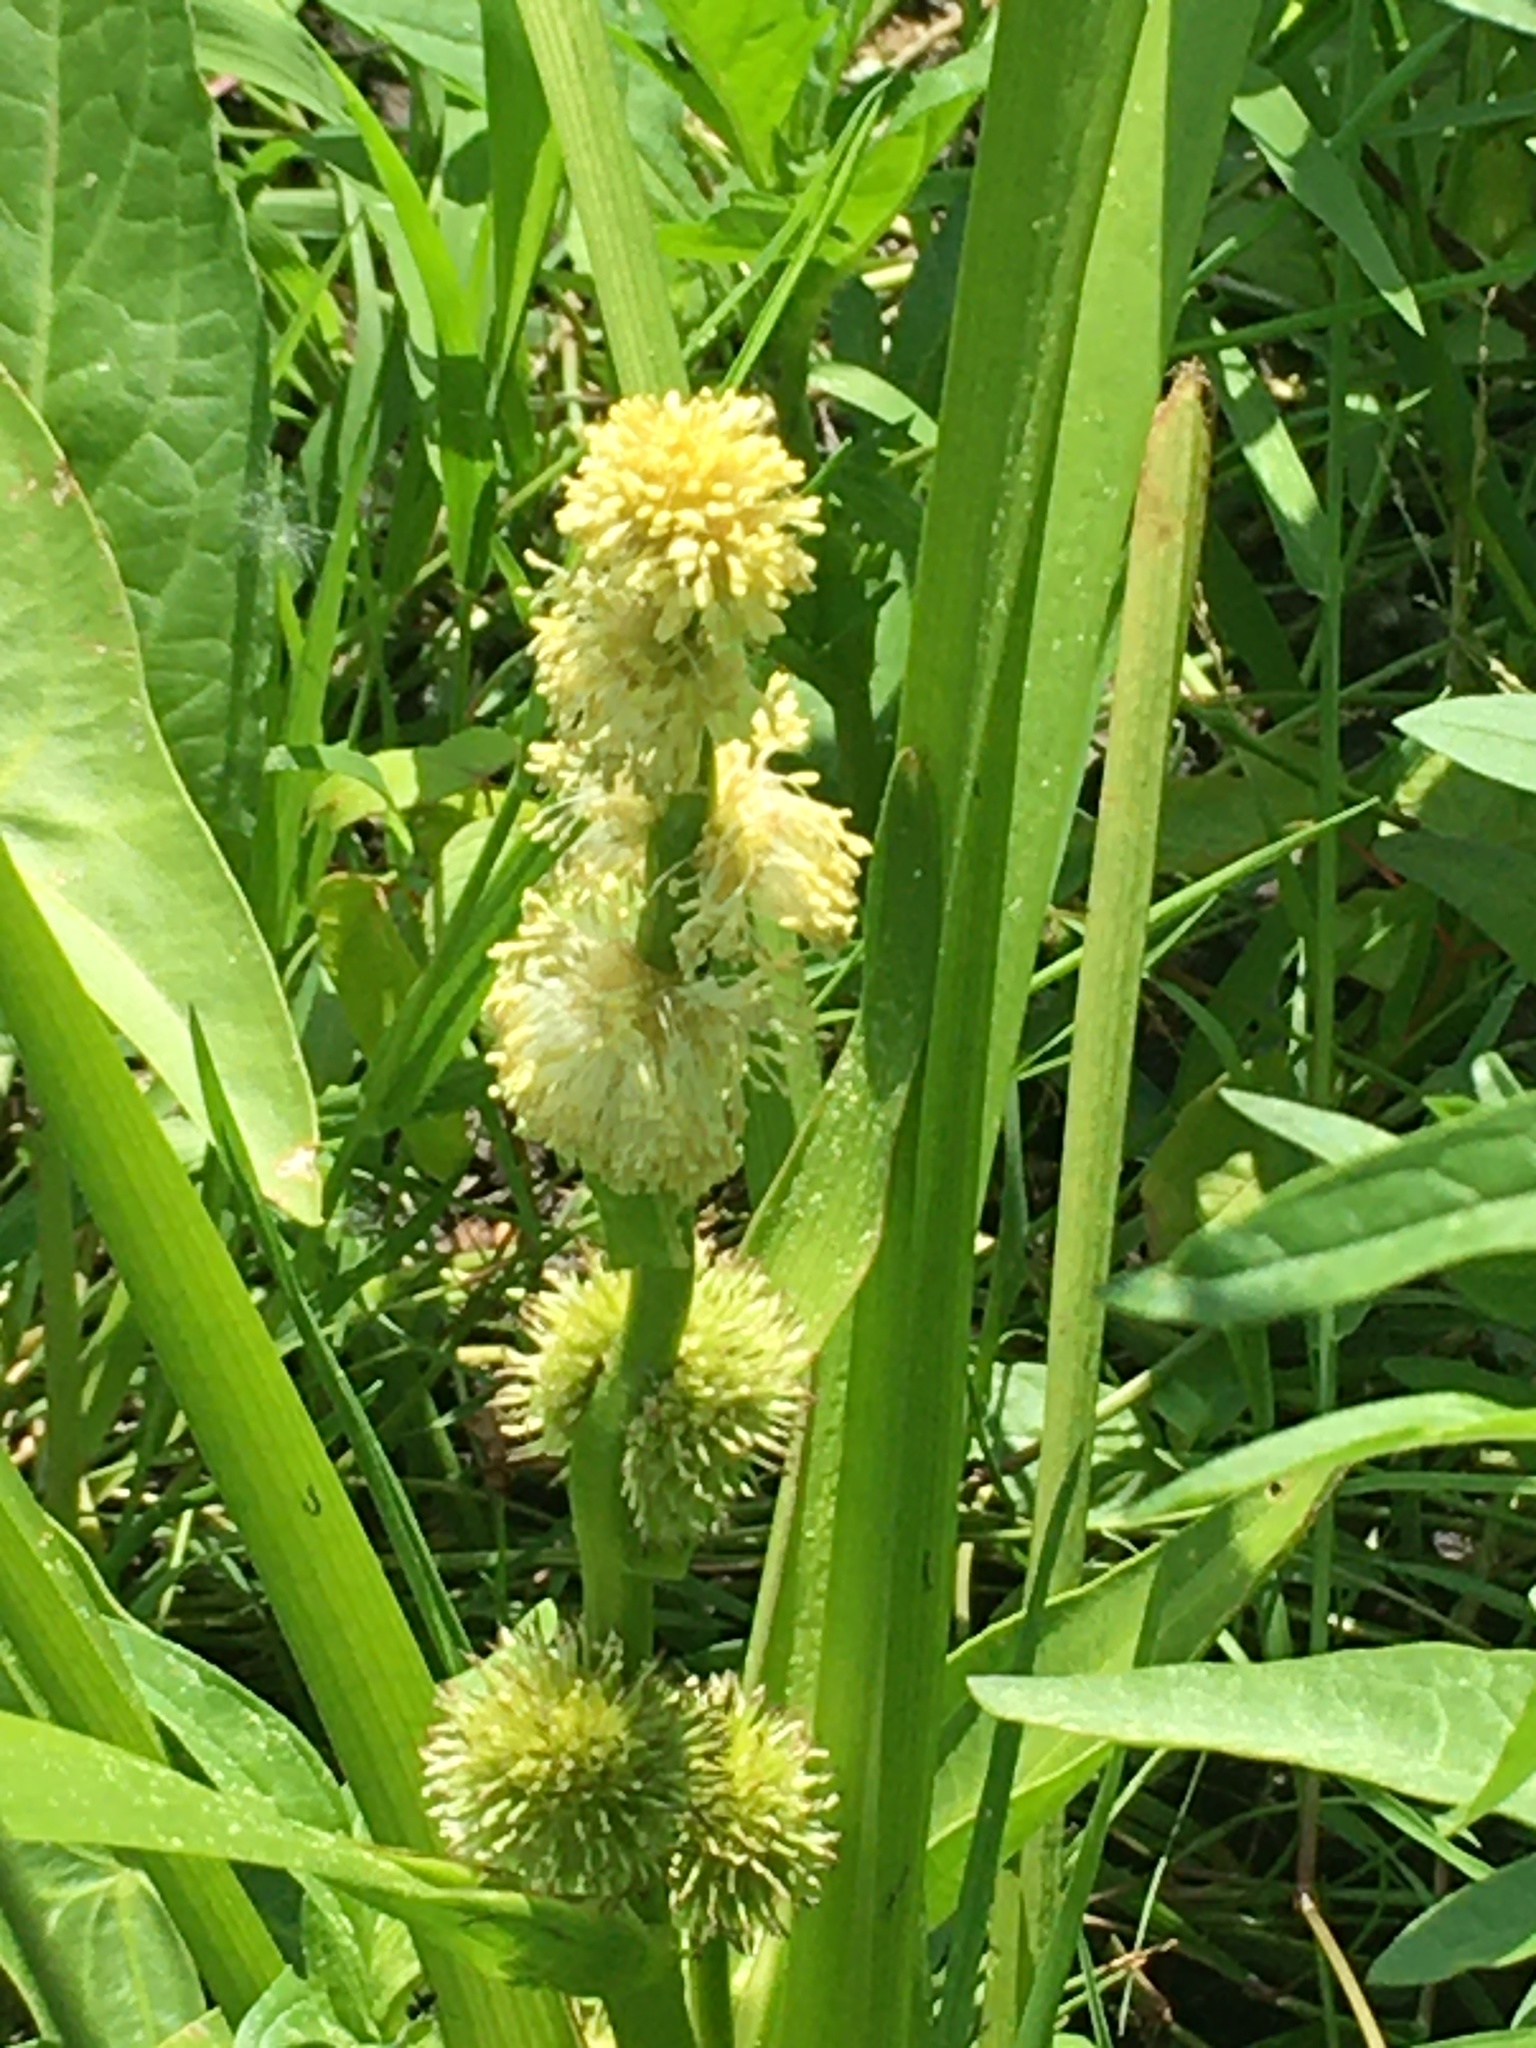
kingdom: Plantae
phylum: Tracheophyta
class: Liliopsida
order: Poales
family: Typhaceae
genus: Sparganium
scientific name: Sparganium emersum
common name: Unbranched bur-reed
